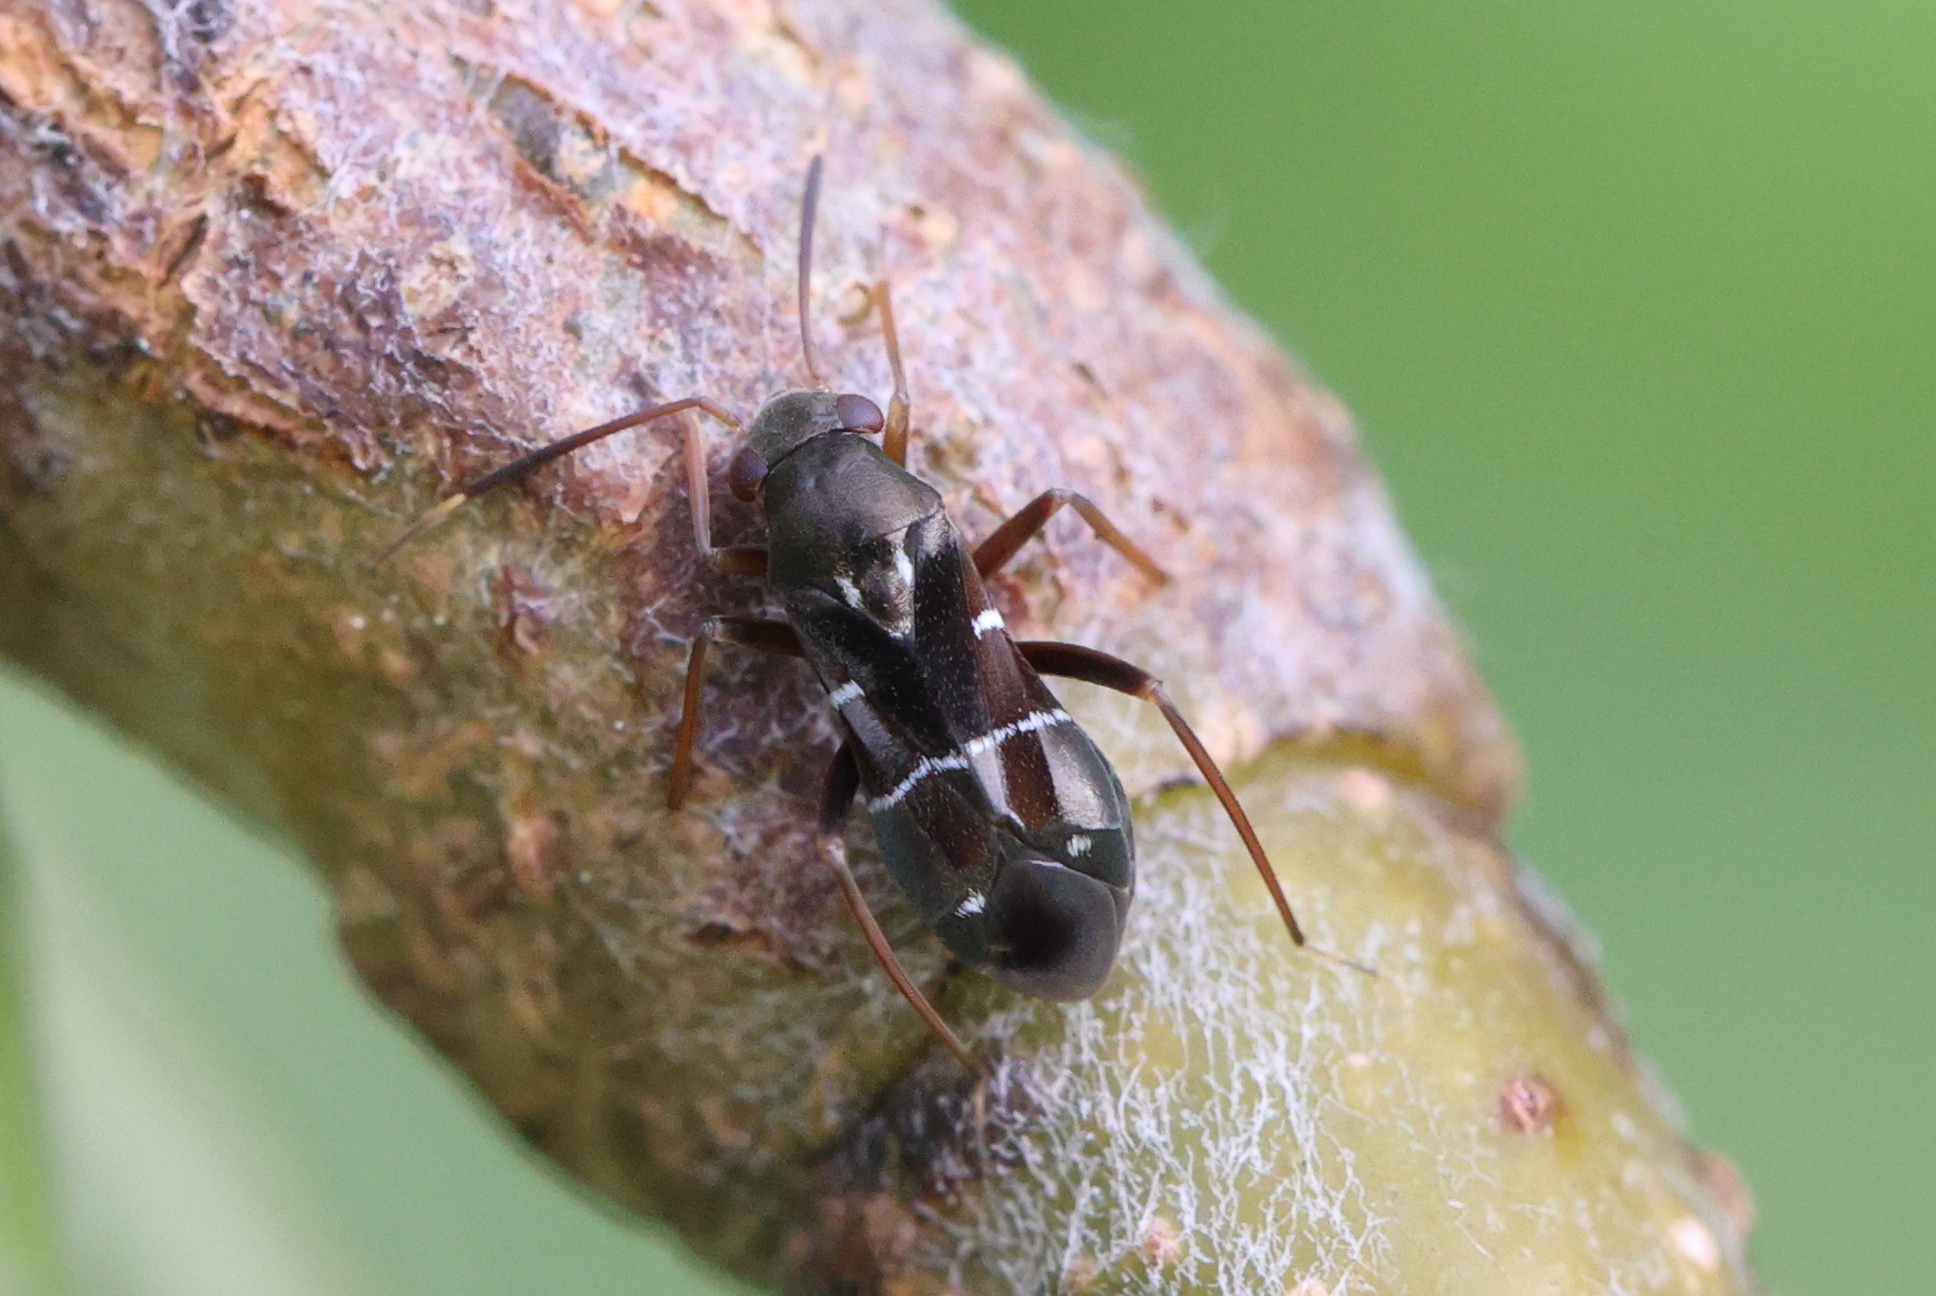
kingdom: Animalia
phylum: Arthropoda
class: Insecta
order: Hemiptera
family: Miridae
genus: Pilophorus
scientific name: Pilophorus perplexus
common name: Plant bug
